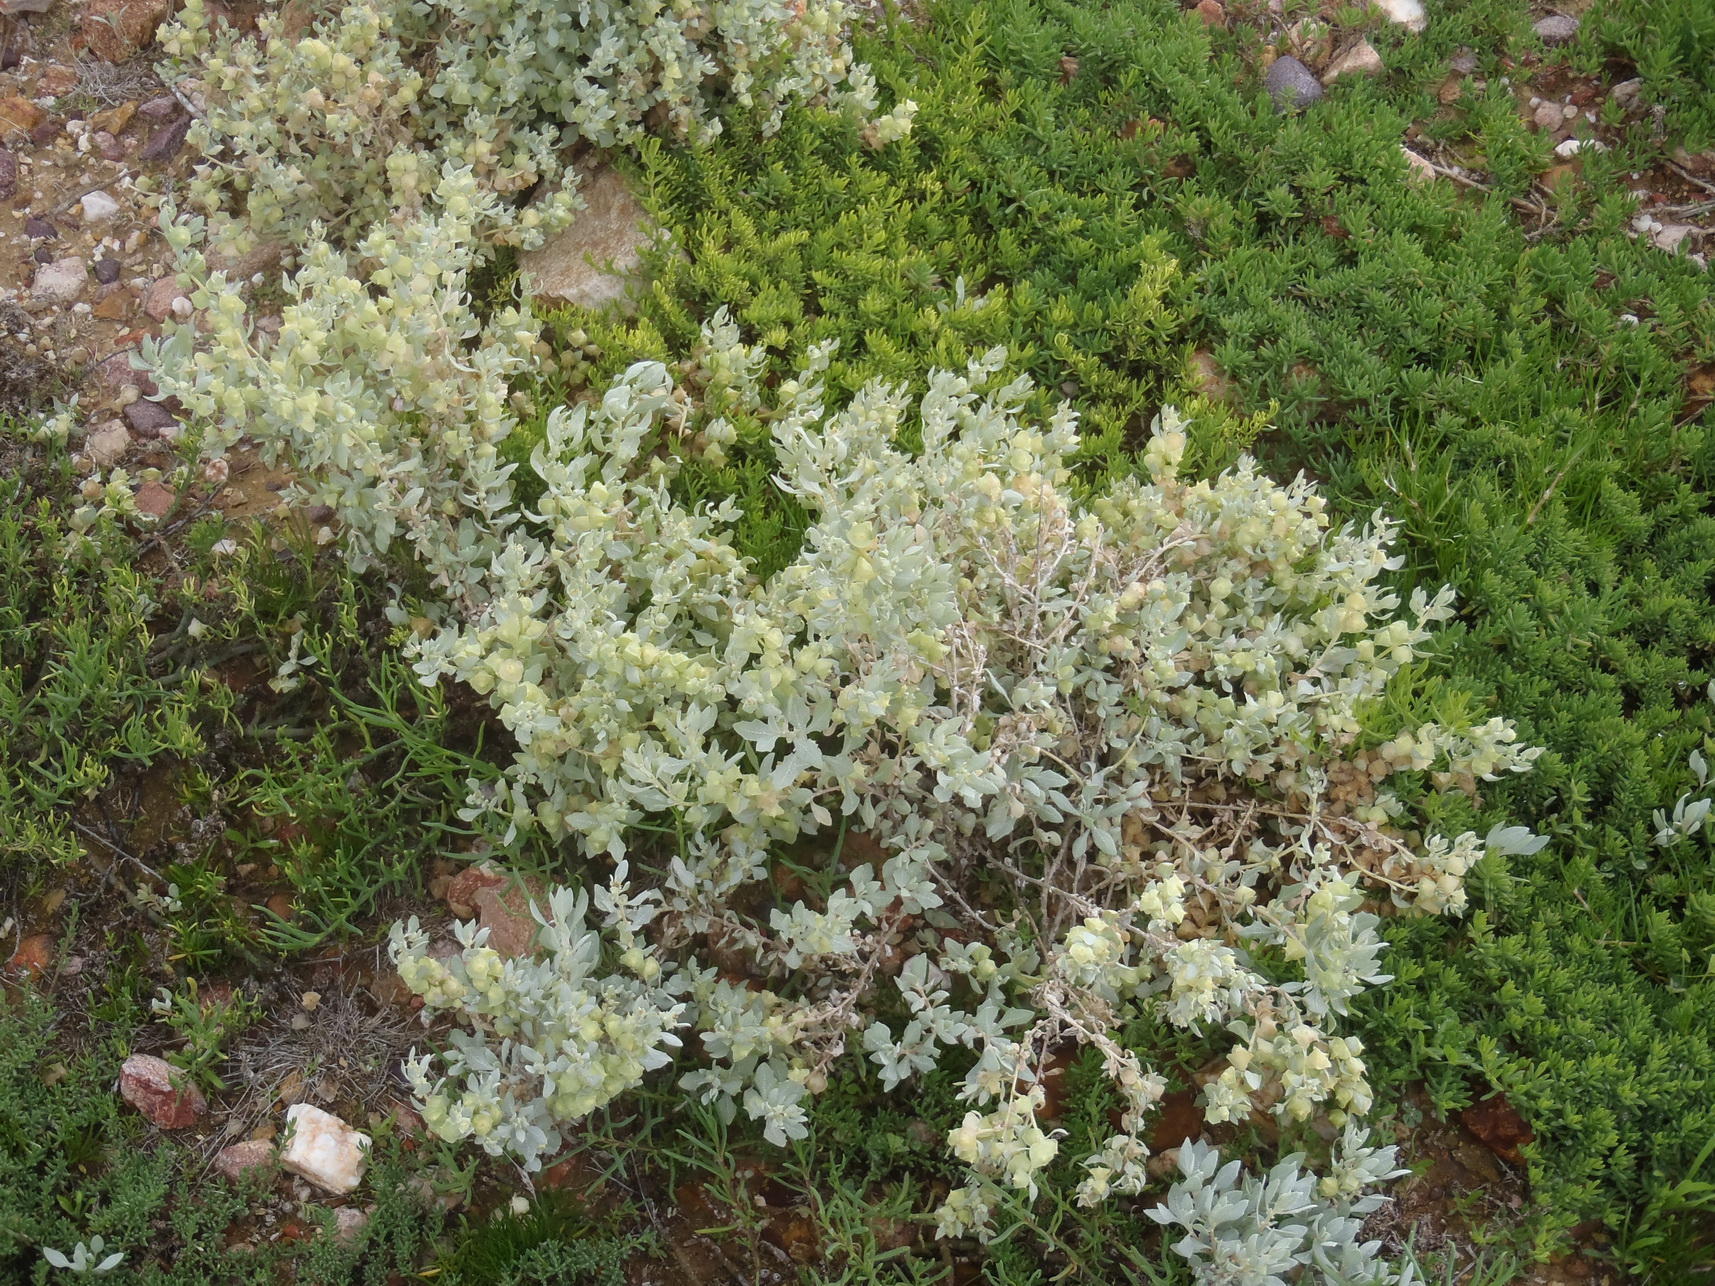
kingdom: Plantae
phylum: Tracheophyta
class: Magnoliopsida
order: Caryophyllales
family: Amaranthaceae
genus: Atriplex
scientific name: Atriplex lindleyi
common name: Lindley's saltbush
